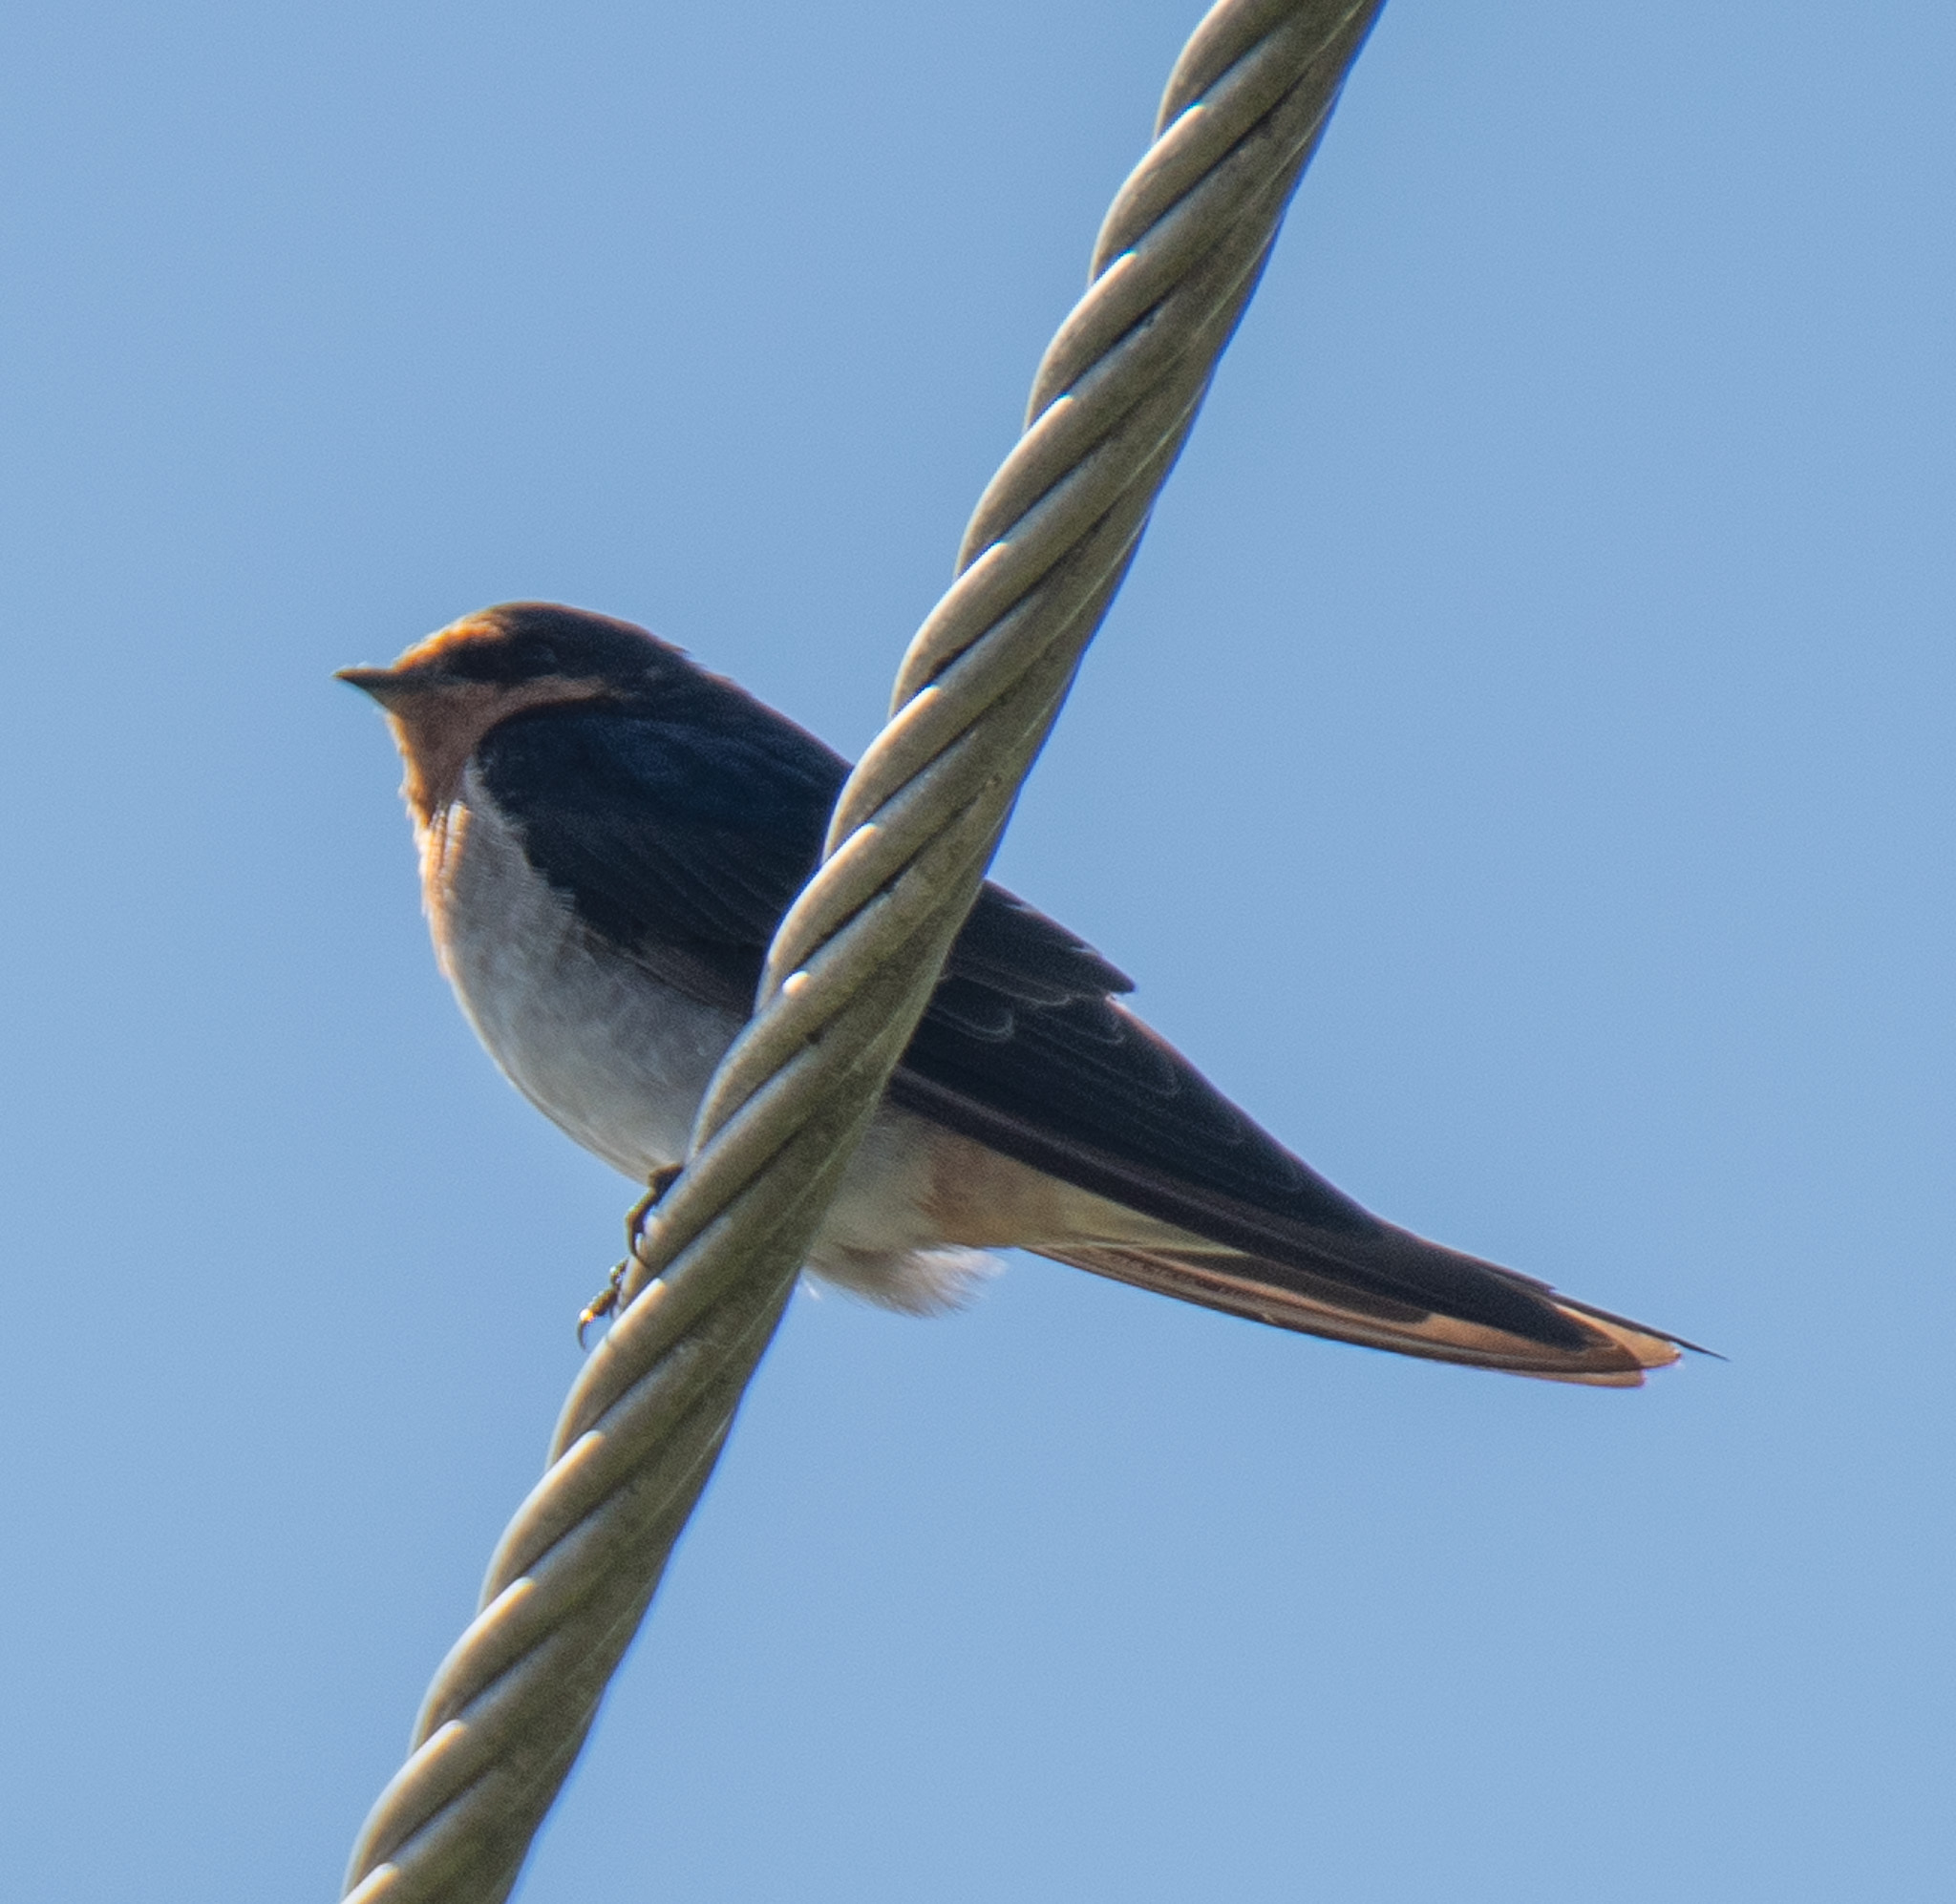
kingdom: Animalia
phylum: Chordata
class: Aves
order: Passeriformes
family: Hirundinidae
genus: Hirundo
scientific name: Hirundo neoxena
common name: Welcome swallow
